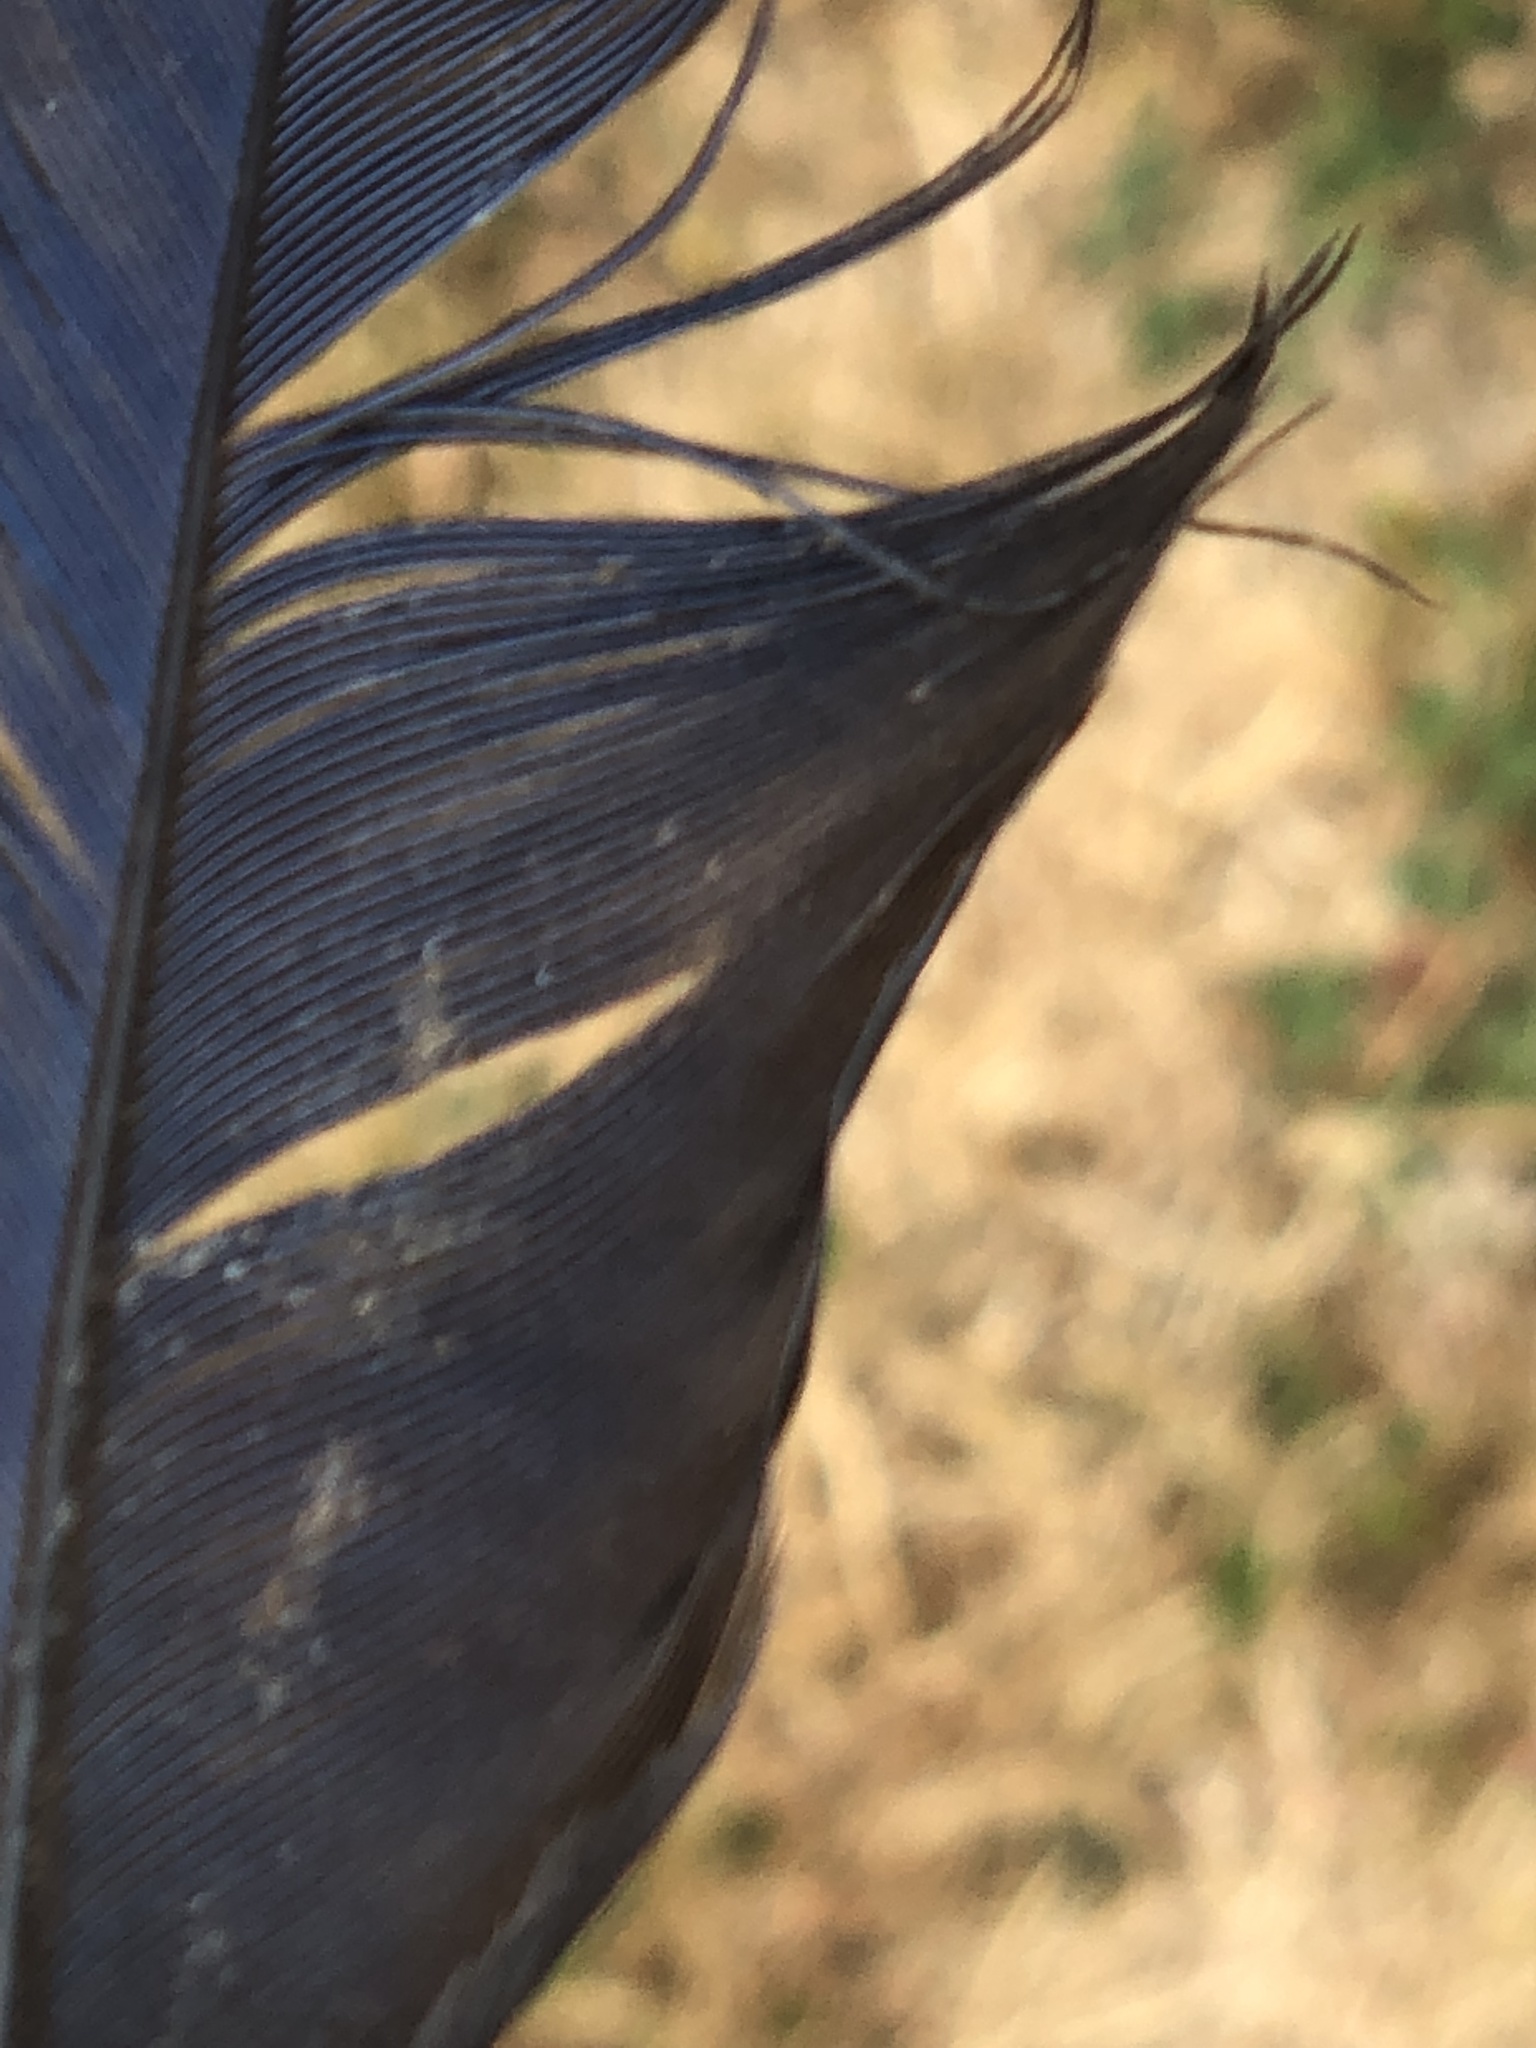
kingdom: Animalia
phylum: Chordata
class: Aves
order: Passeriformes
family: Corvidae
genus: Cyanocitta
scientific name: Cyanocitta stelleri
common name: Steller's jay
